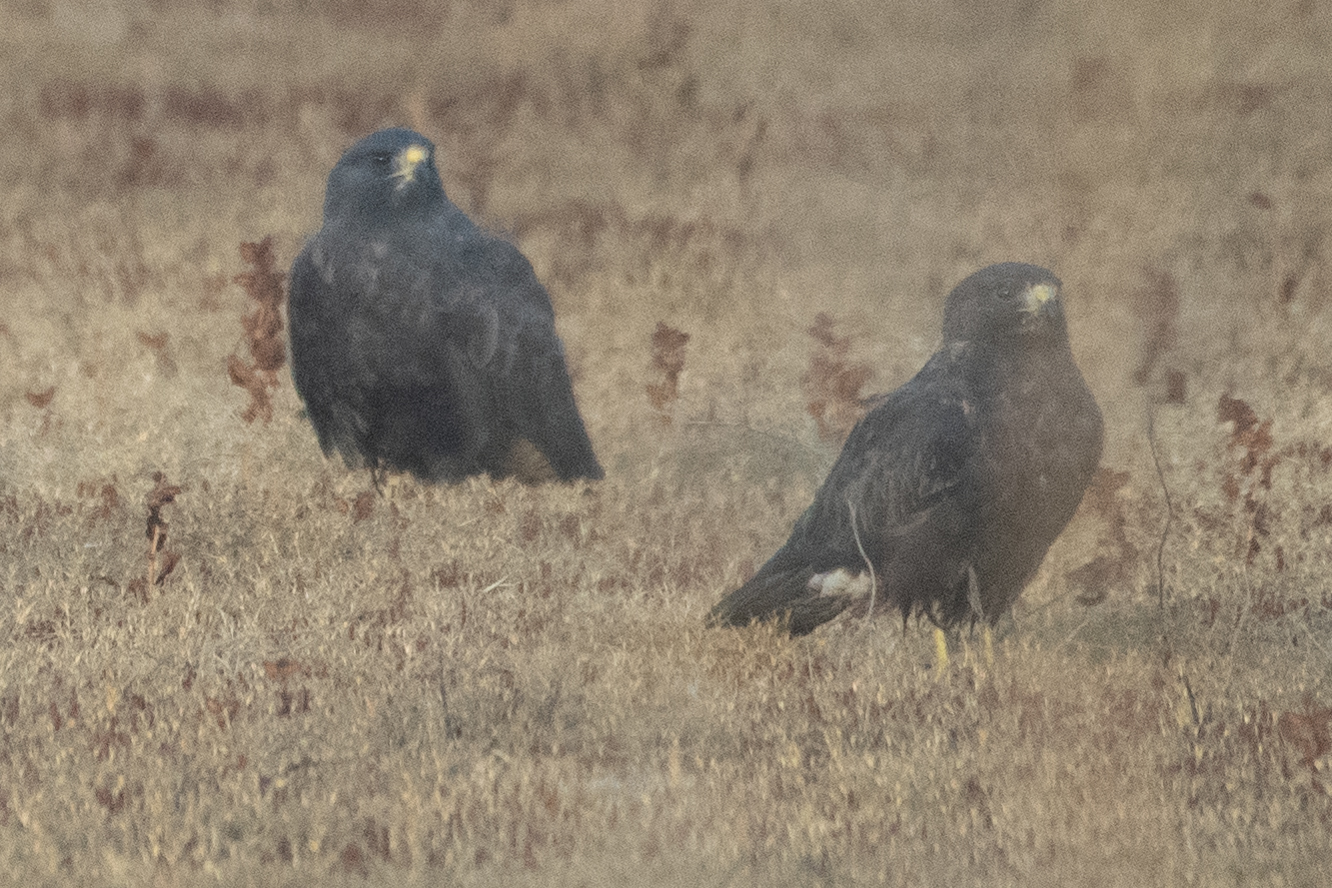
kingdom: Animalia
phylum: Chordata
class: Aves
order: Accipitriformes
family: Accipitridae
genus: Buteo
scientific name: Buteo swainsoni
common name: Swainson's hawk
